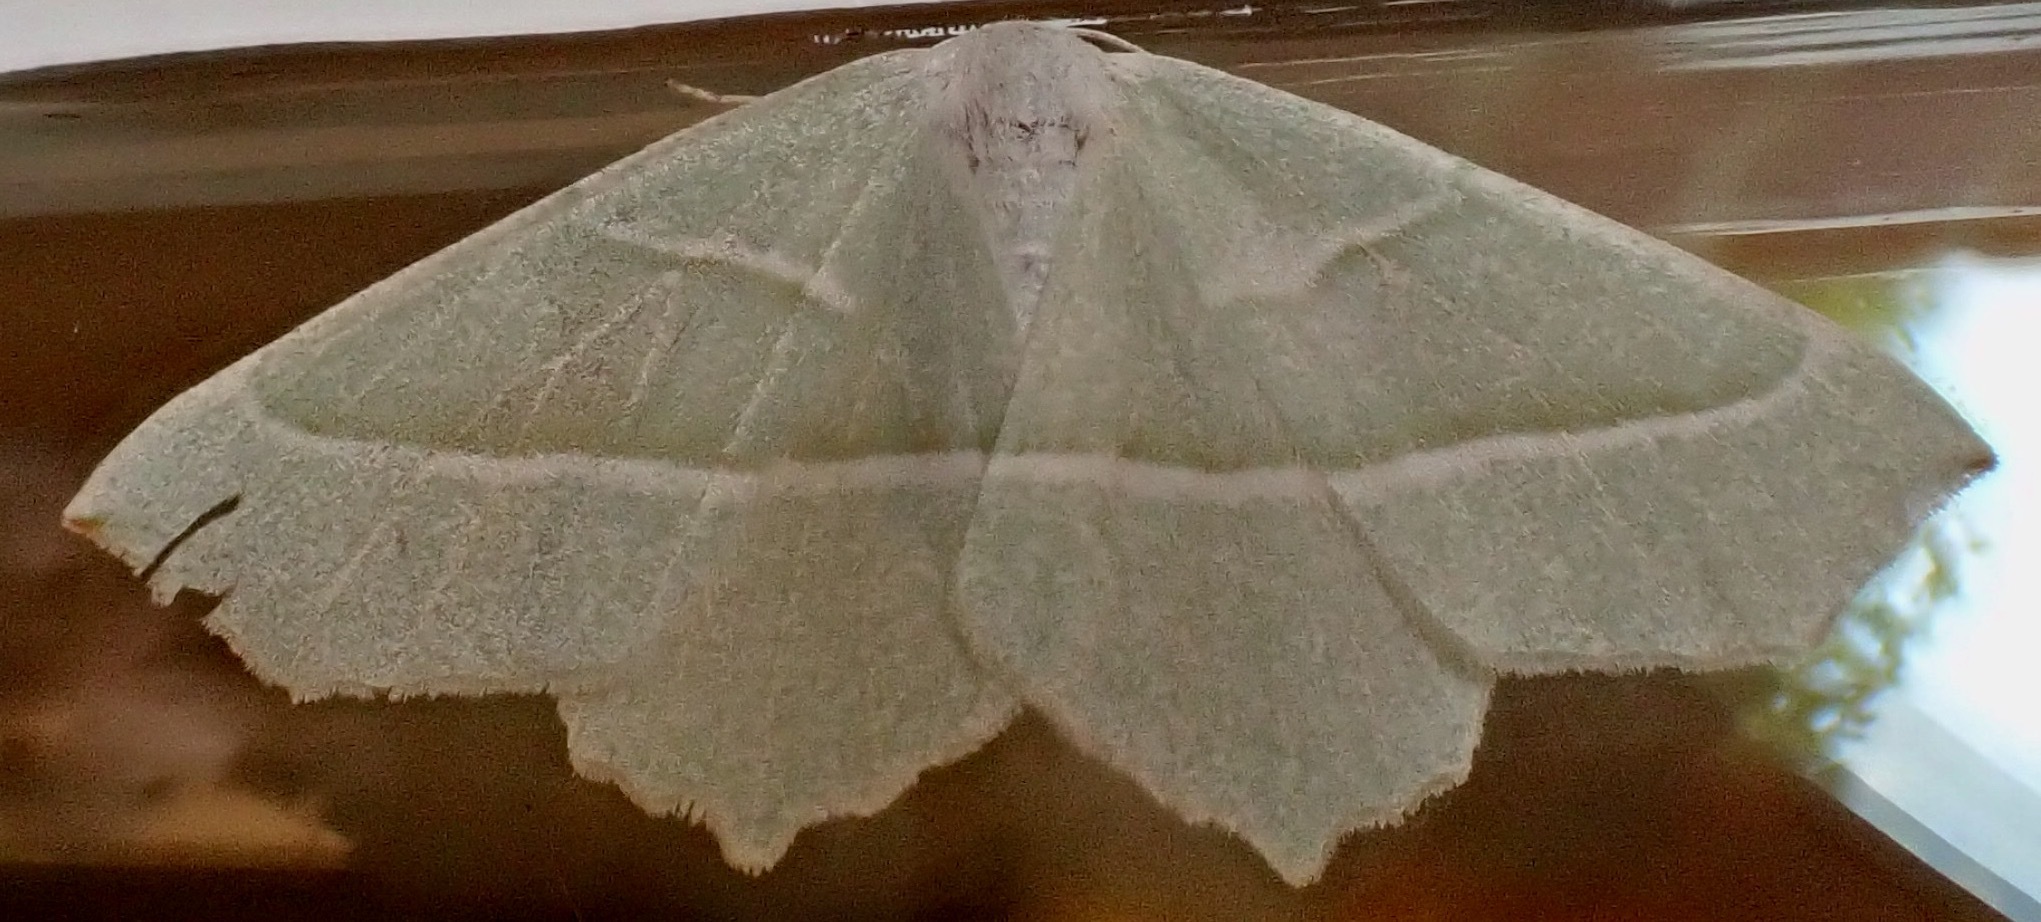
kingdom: Animalia
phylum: Arthropoda
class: Insecta
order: Lepidoptera
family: Geometridae
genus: Campaea
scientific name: Campaea margaritaria
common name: Light emerald
